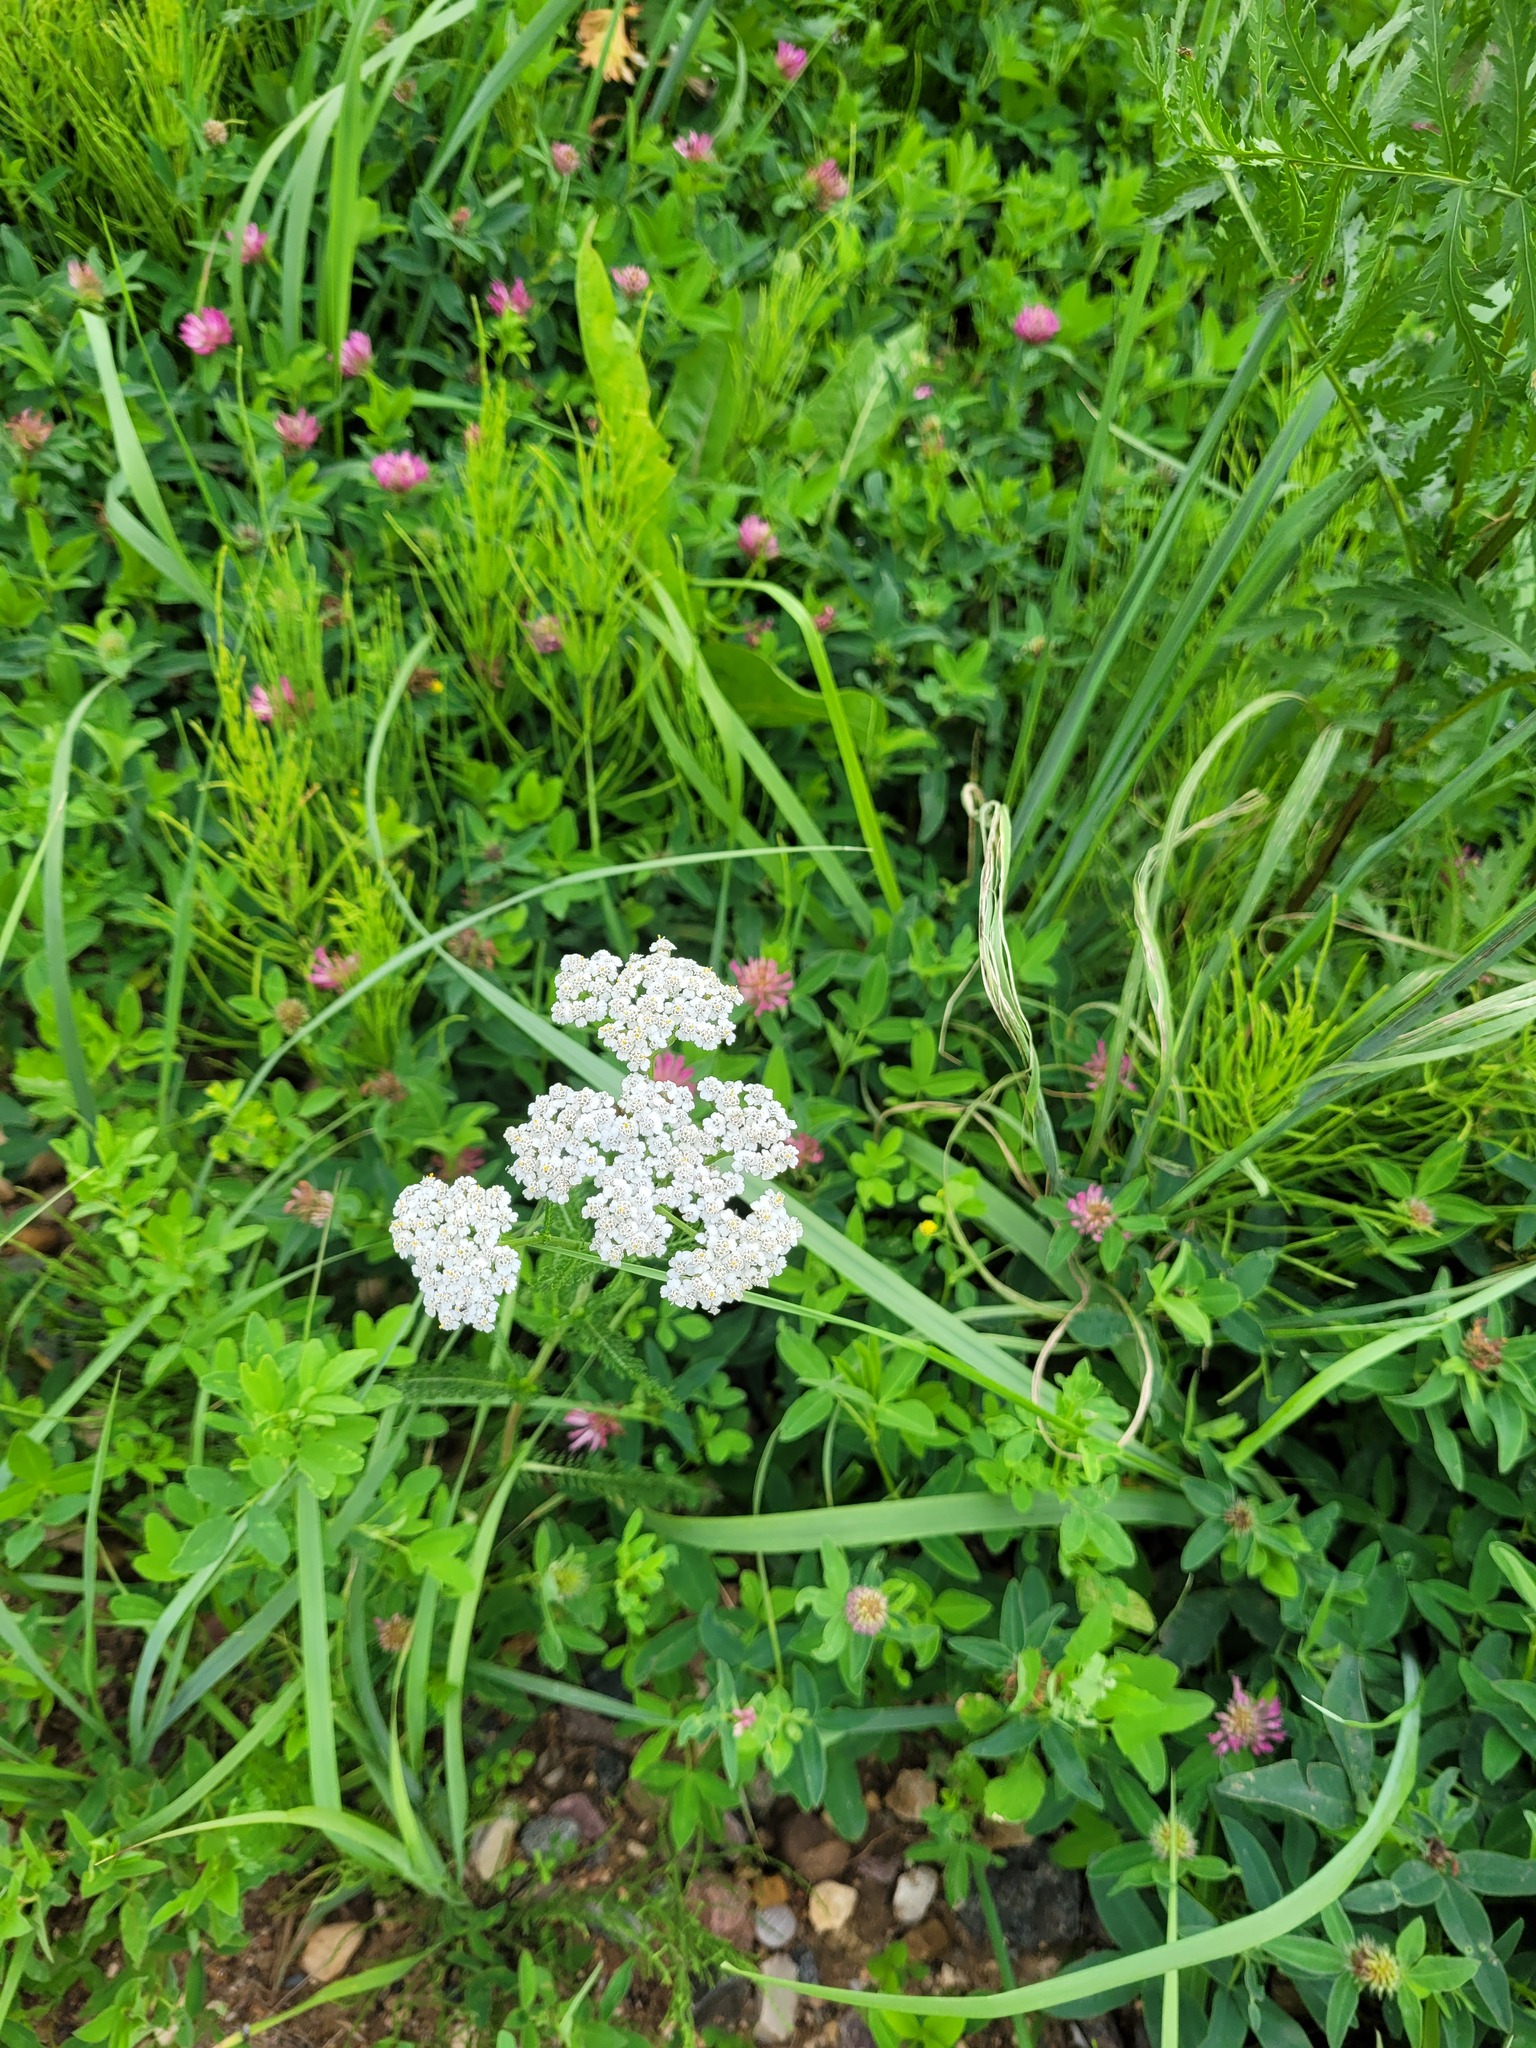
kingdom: Plantae
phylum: Tracheophyta
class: Magnoliopsida
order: Asterales
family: Asteraceae
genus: Achillea
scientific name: Achillea millefolium
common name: Yarrow
